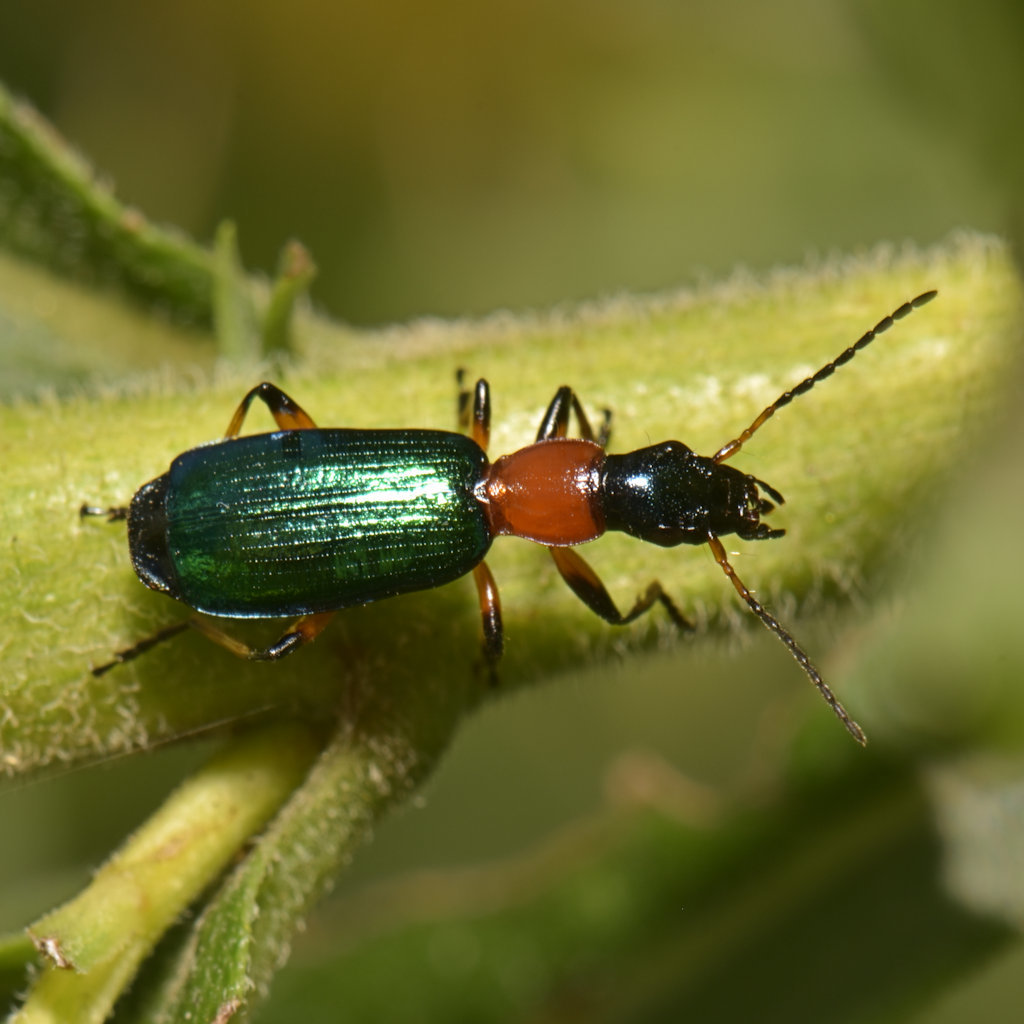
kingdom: Animalia
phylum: Arthropoda
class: Insecta
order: Coleoptera
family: Carabidae
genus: Calleida
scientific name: Calleida punctata
